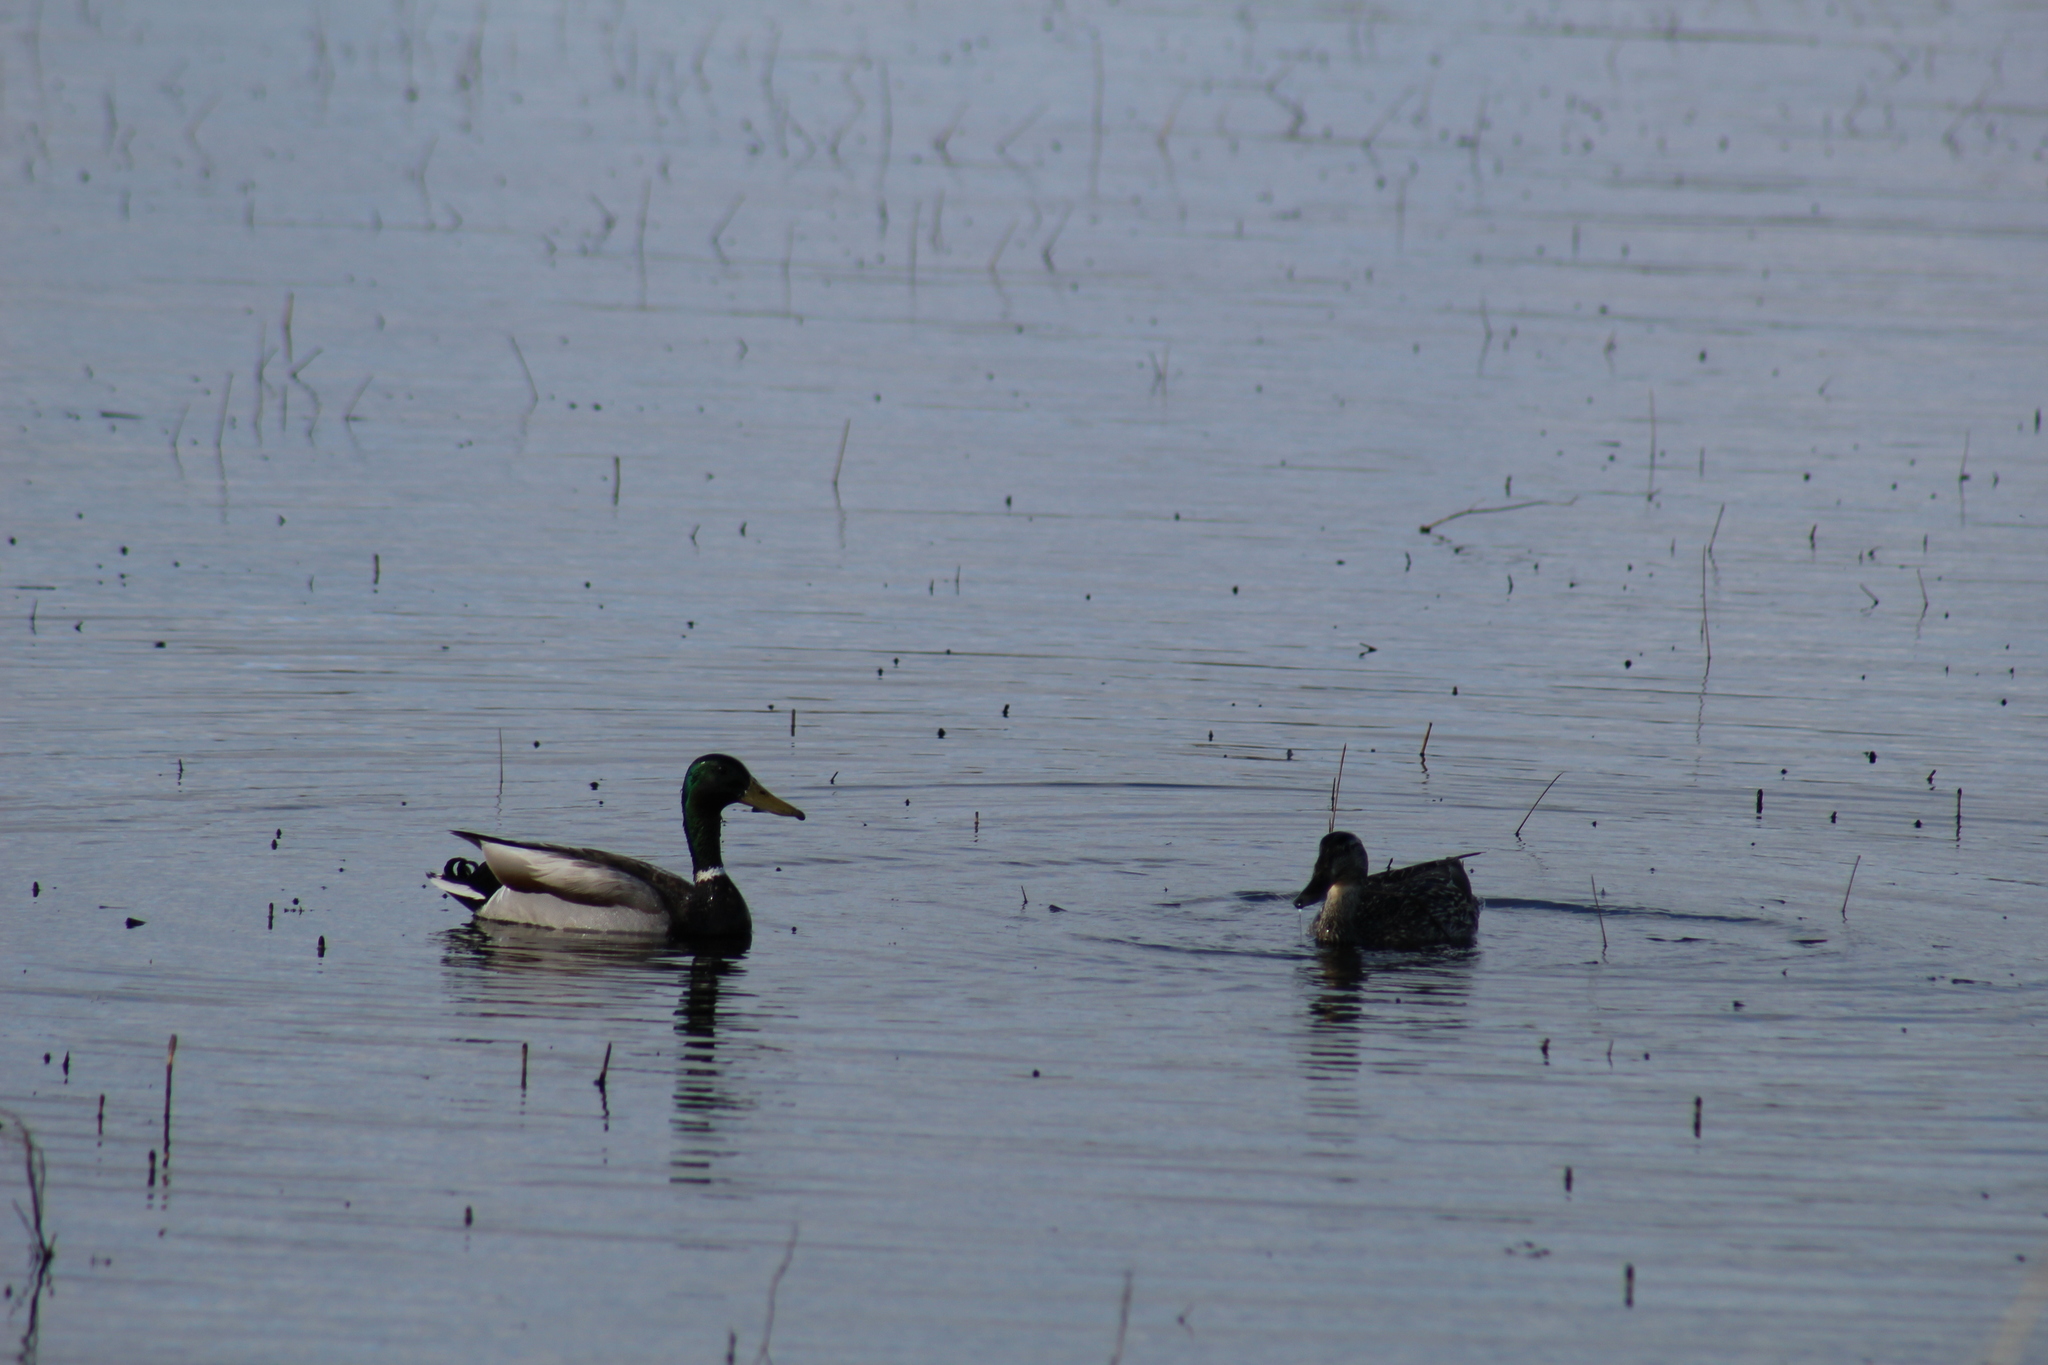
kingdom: Animalia
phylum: Chordata
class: Aves
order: Anseriformes
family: Anatidae
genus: Anas
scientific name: Anas platyrhynchos
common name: Mallard
